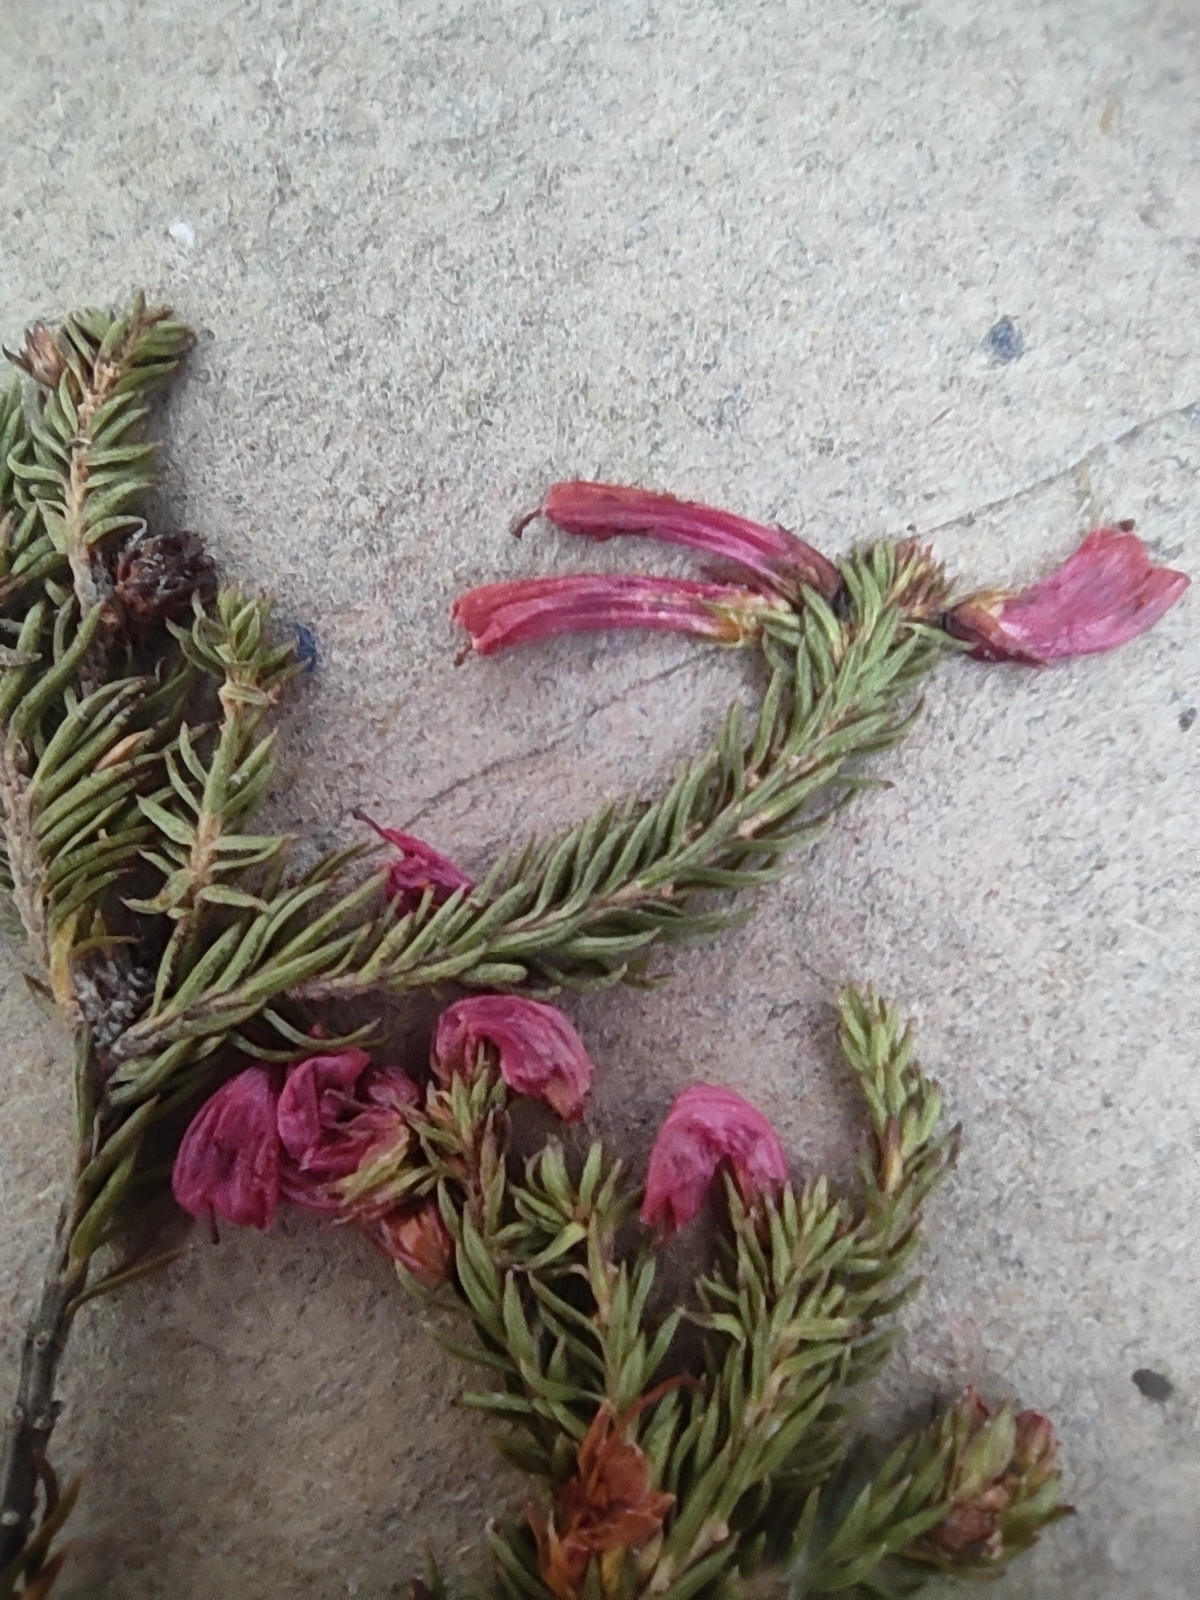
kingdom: Plantae
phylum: Tracheophyta
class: Magnoliopsida
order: Ericales
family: Ericaceae
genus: Erica
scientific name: Erica
